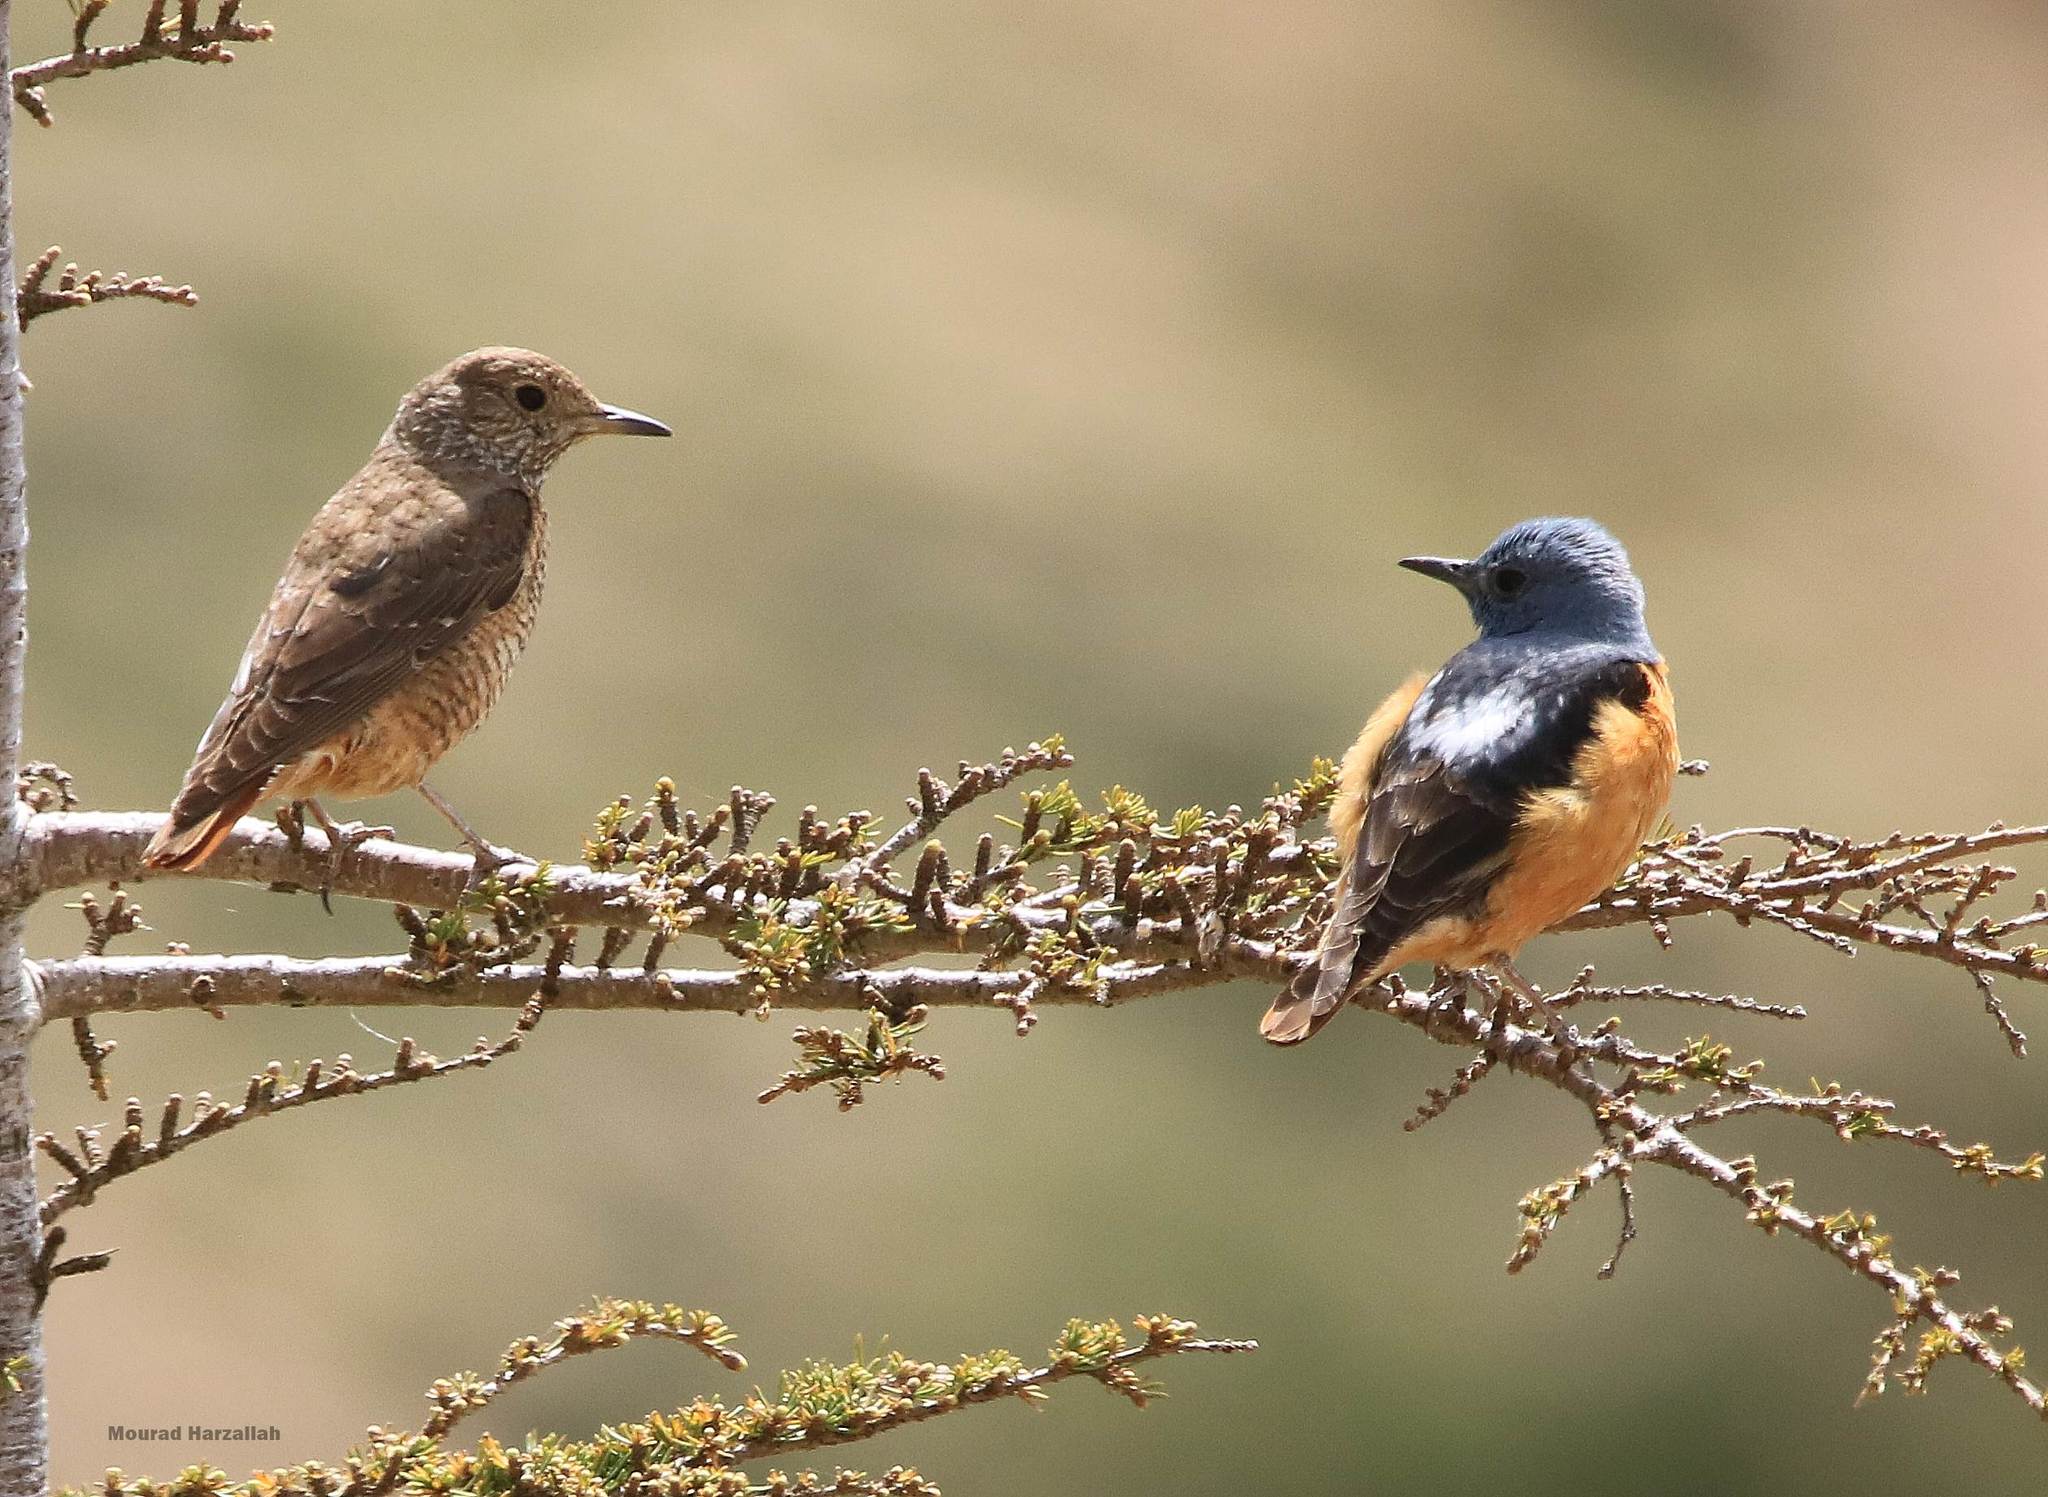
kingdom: Animalia
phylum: Chordata
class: Aves
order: Passeriformes
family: Muscicapidae
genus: Monticola
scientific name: Monticola saxatilis
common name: Rufous-tailed rock thrush
